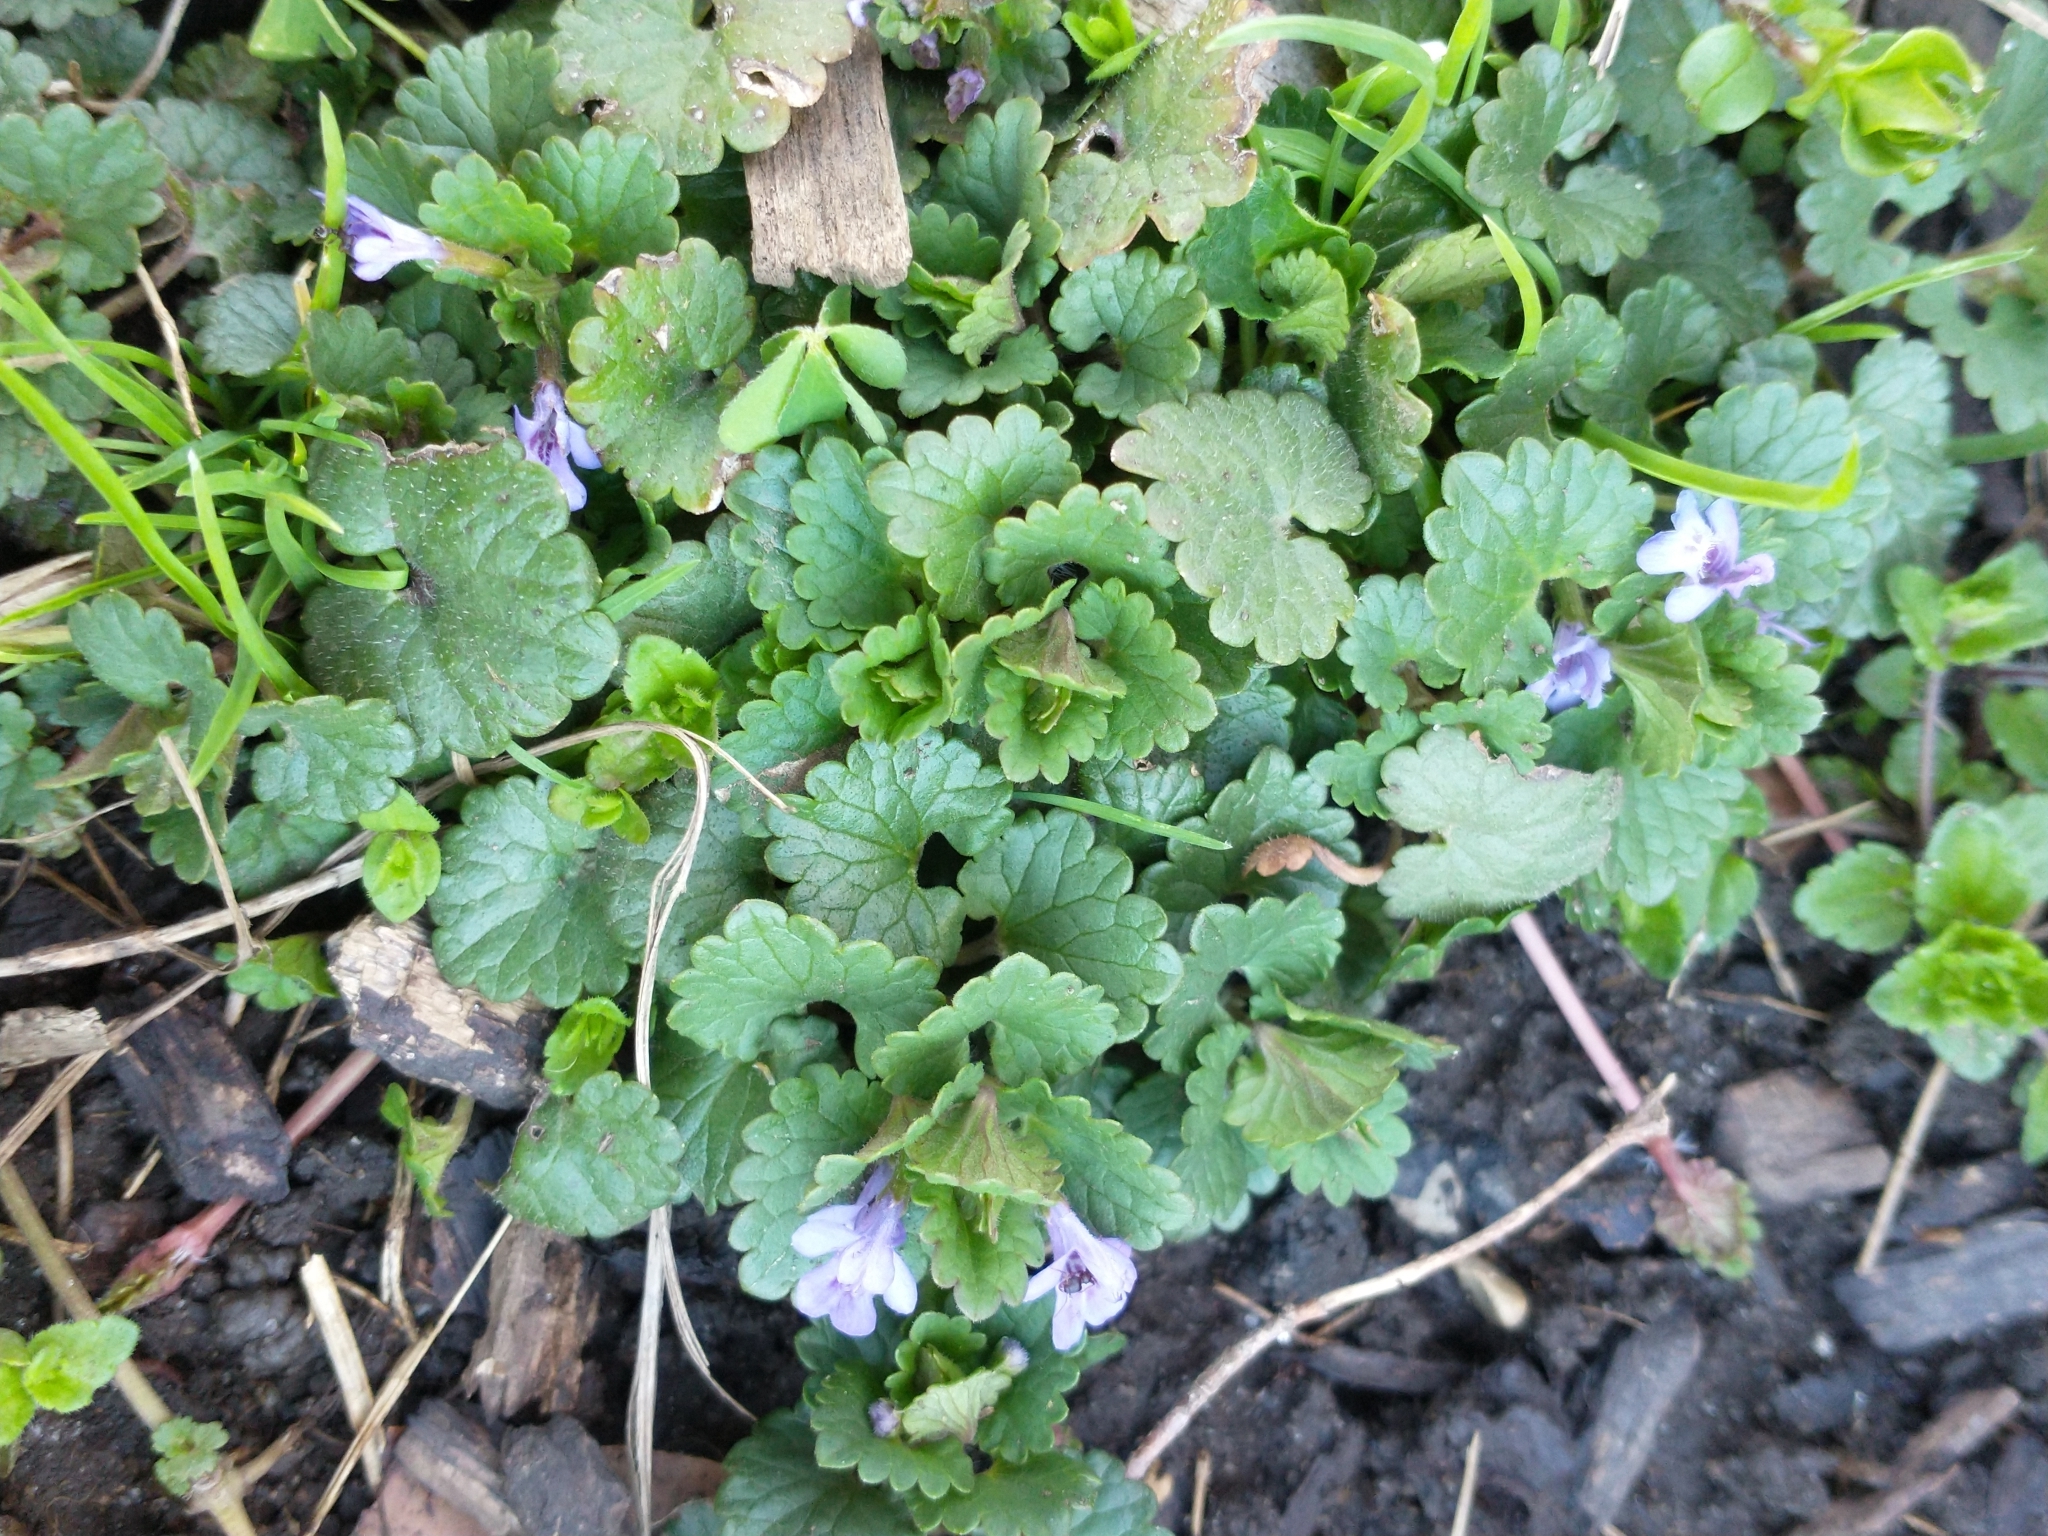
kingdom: Plantae
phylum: Tracheophyta
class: Magnoliopsida
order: Lamiales
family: Lamiaceae
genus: Glechoma
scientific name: Glechoma hederacea
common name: Ground ivy
